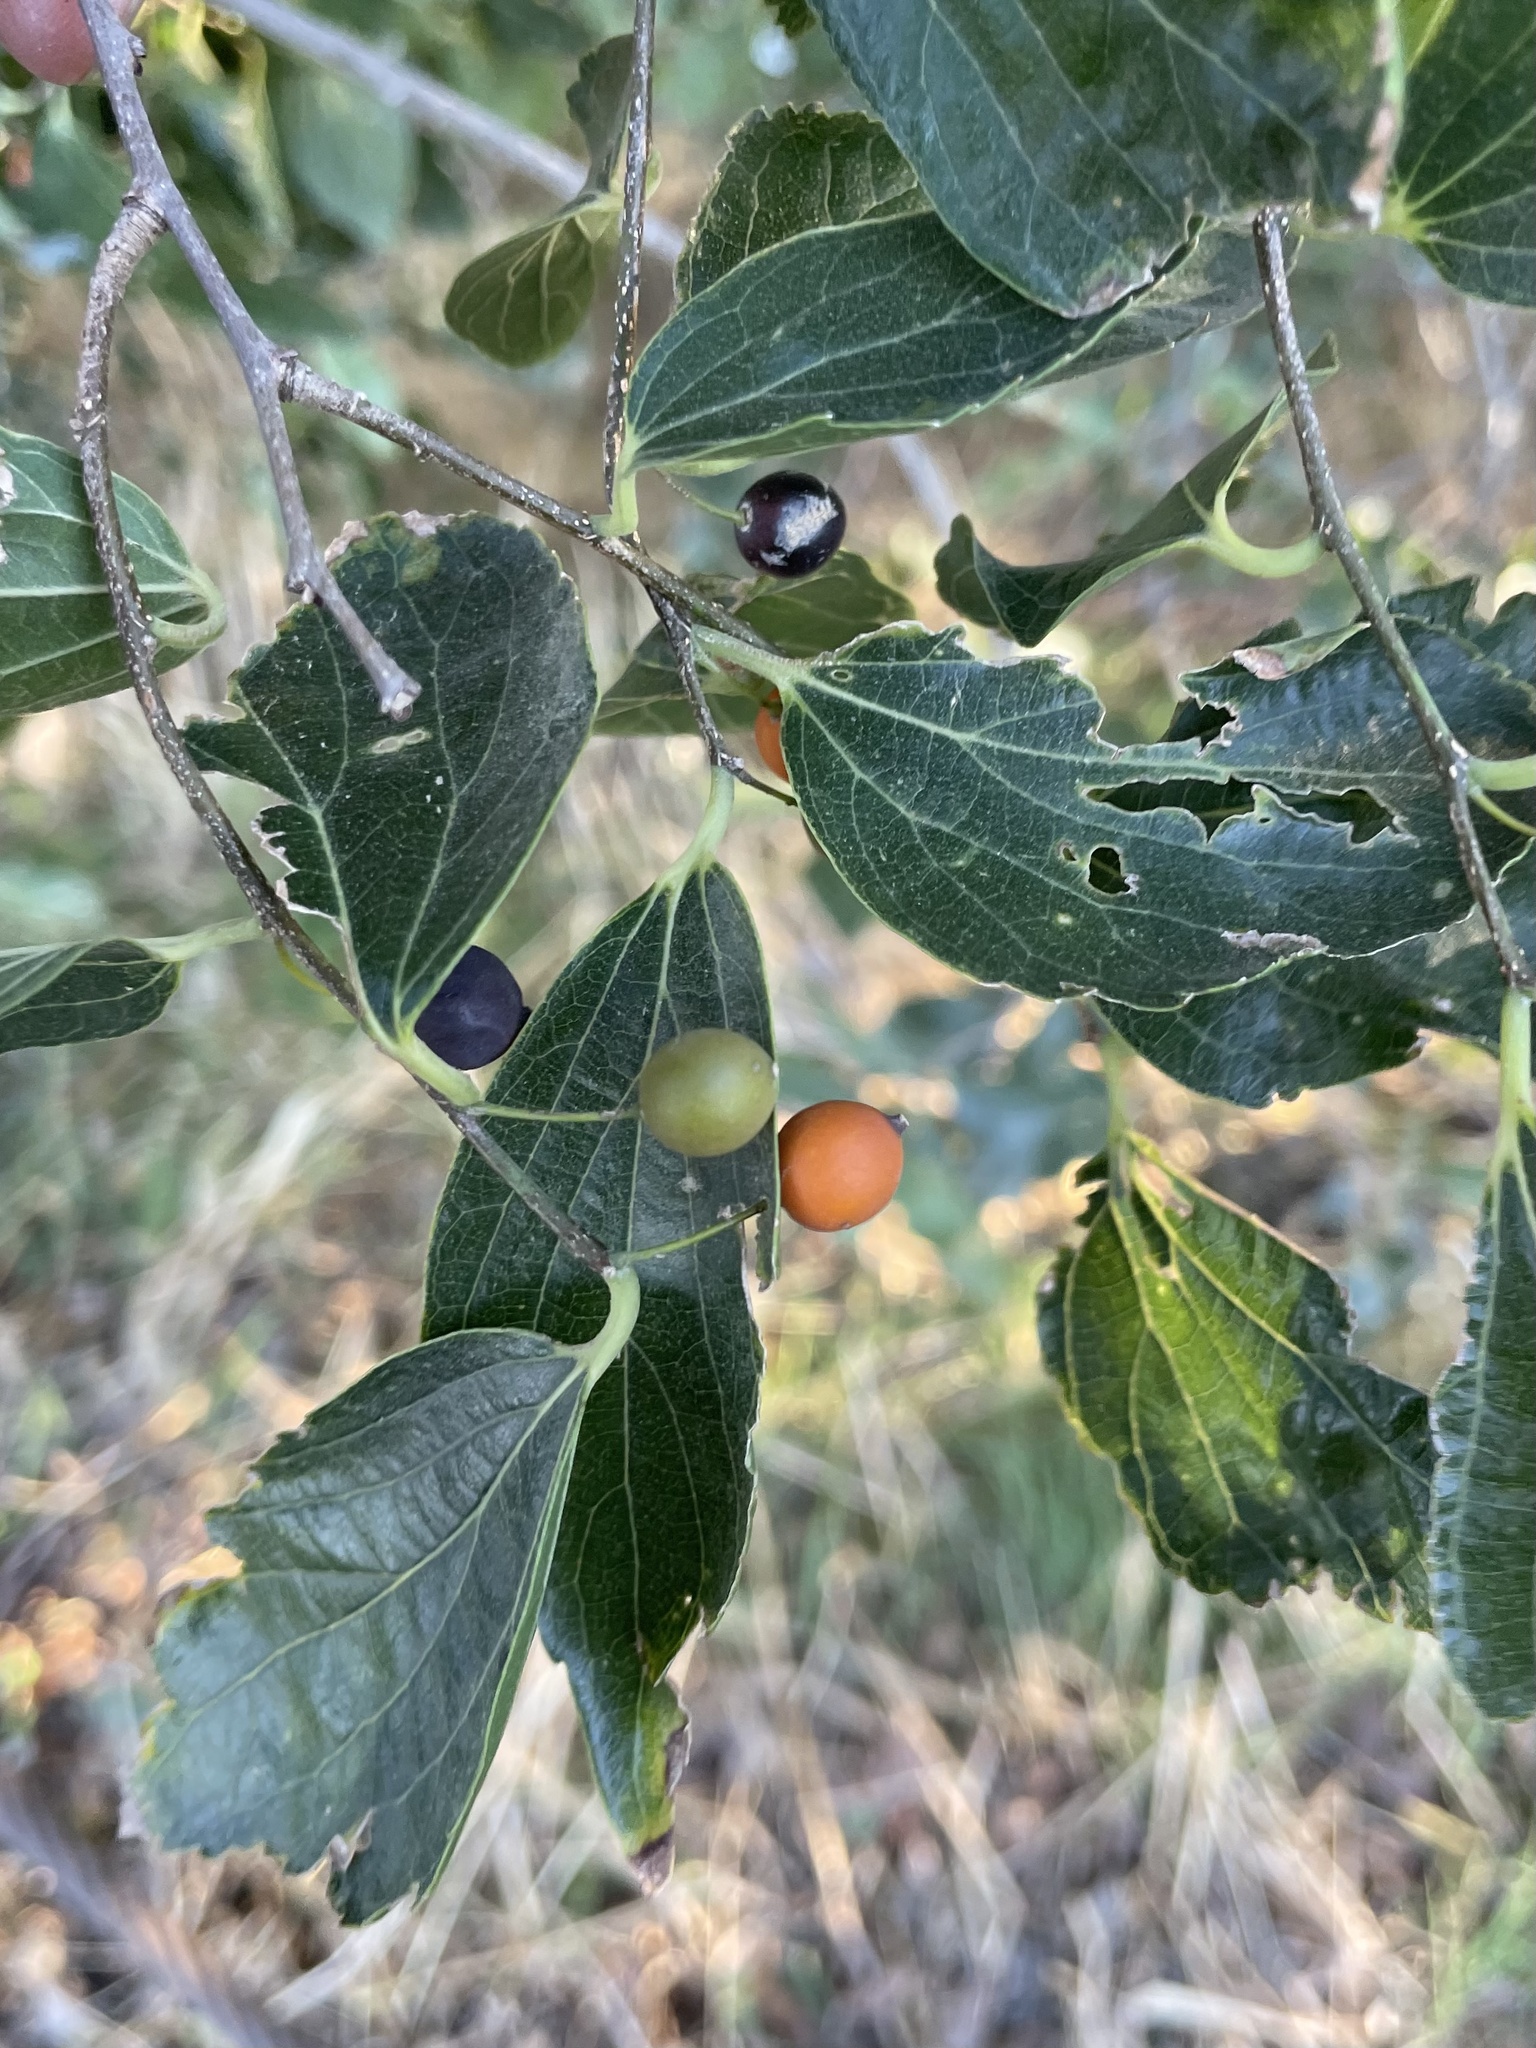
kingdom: Plantae
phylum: Tracheophyta
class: Magnoliopsida
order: Rosales
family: Cannabaceae
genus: Celtis
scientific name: Celtis sinensis
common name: Chinese hackberry
